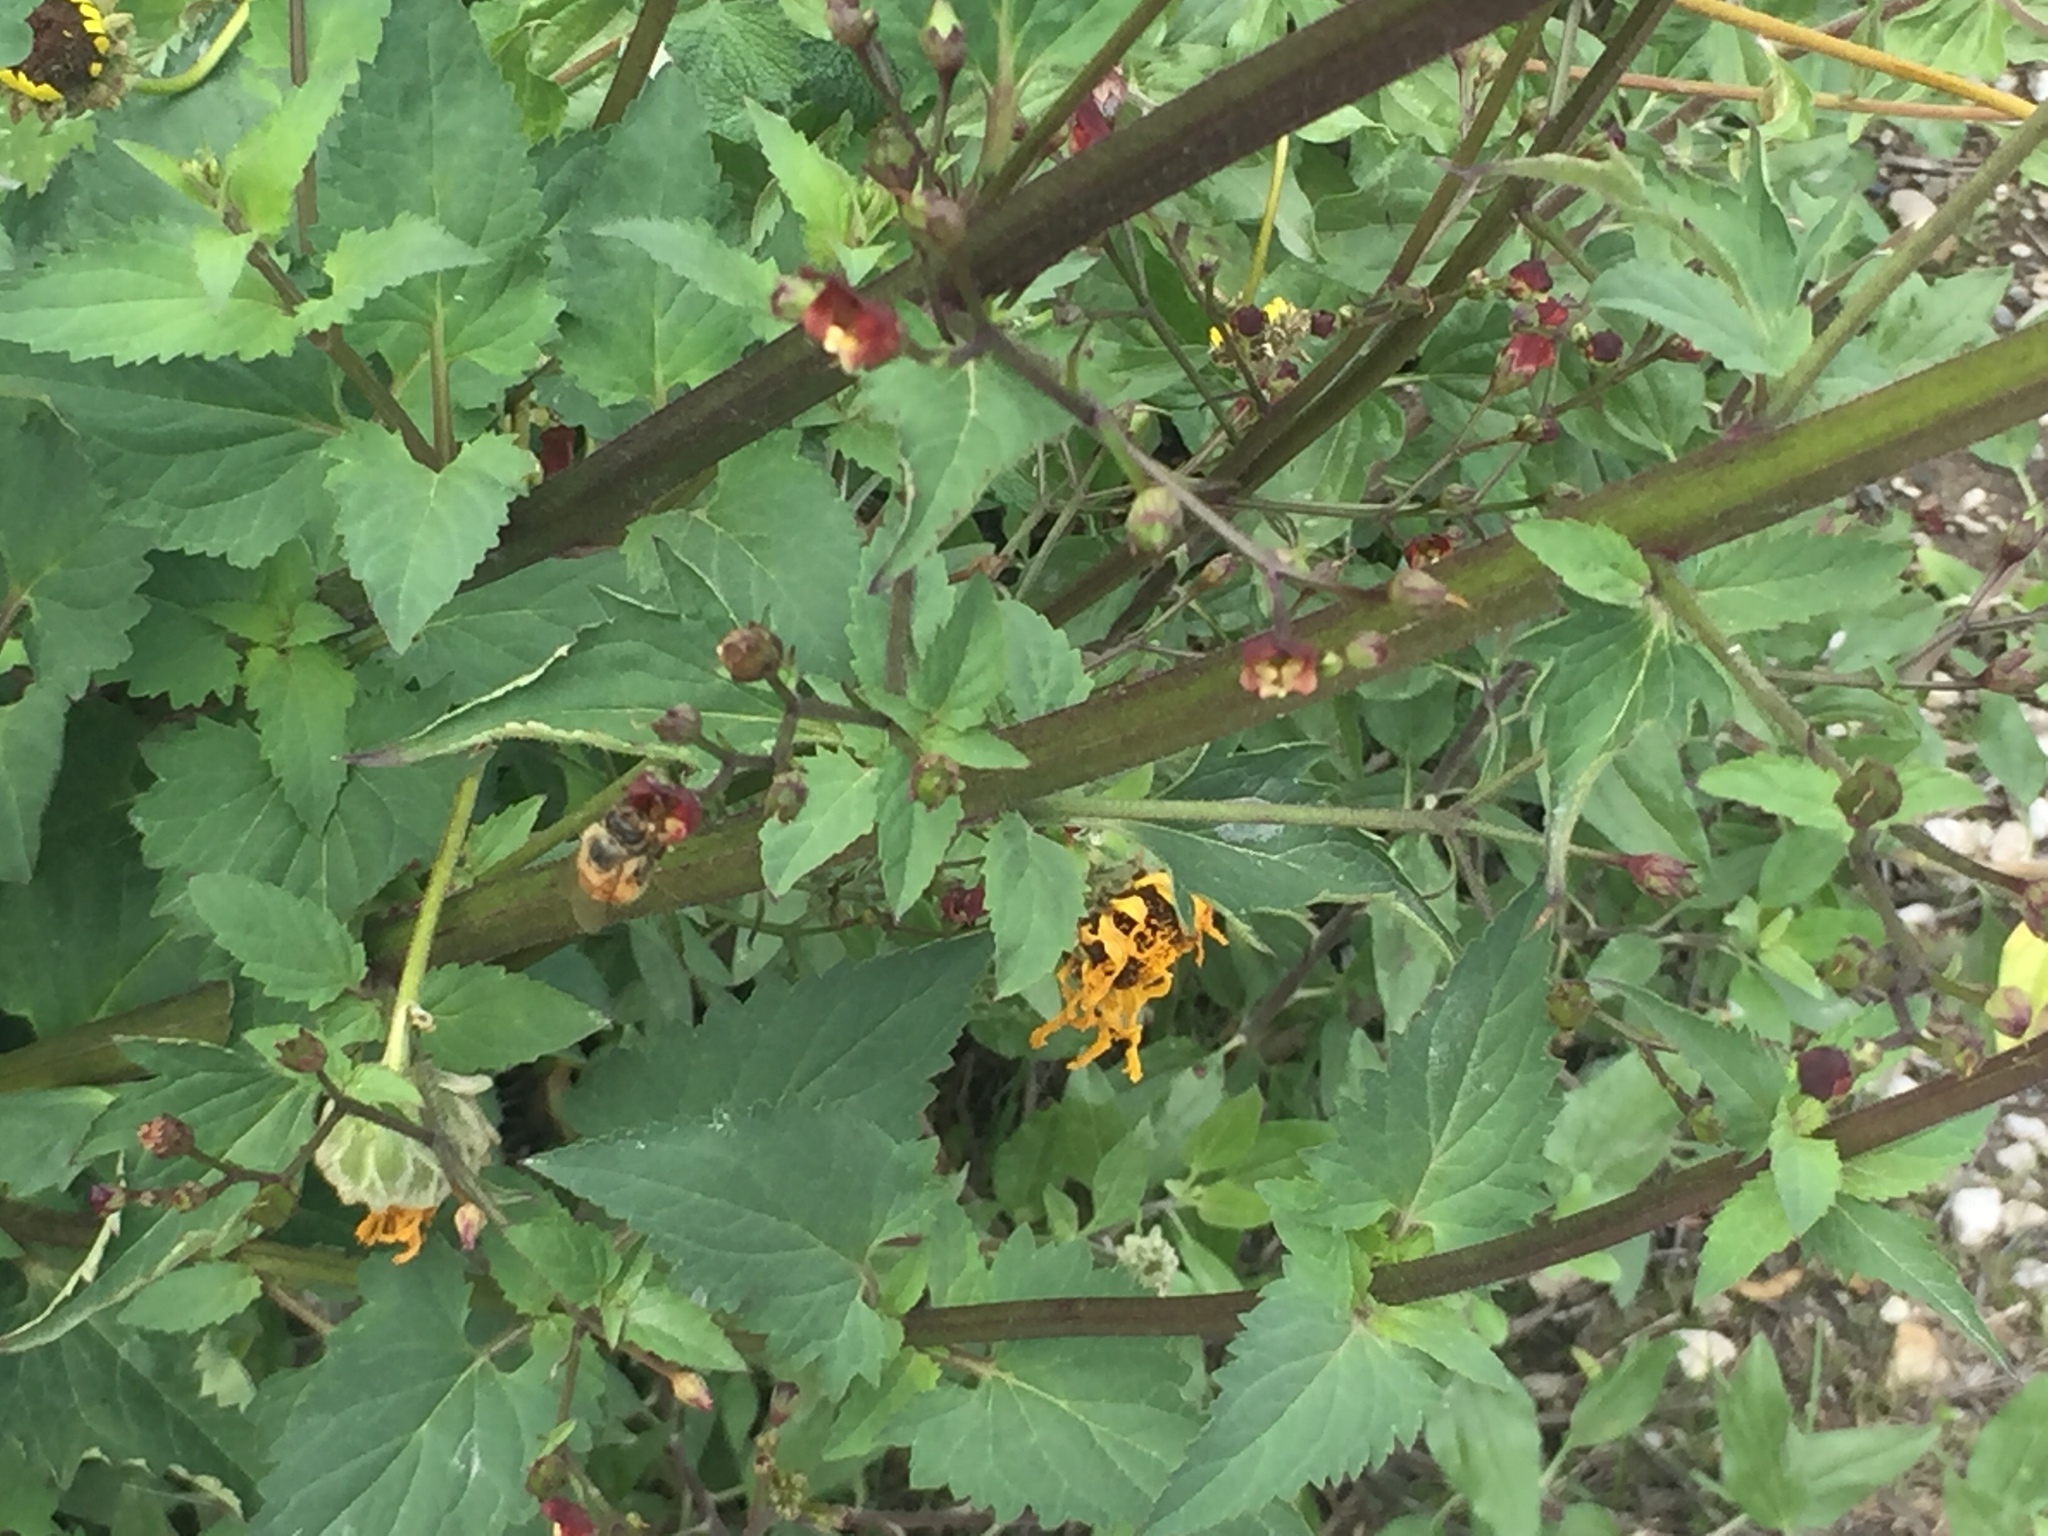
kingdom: Animalia
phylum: Arthropoda
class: Insecta
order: Hymenoptera
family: Apidae
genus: Apis
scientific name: Apis mellifera
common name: Honey bee
